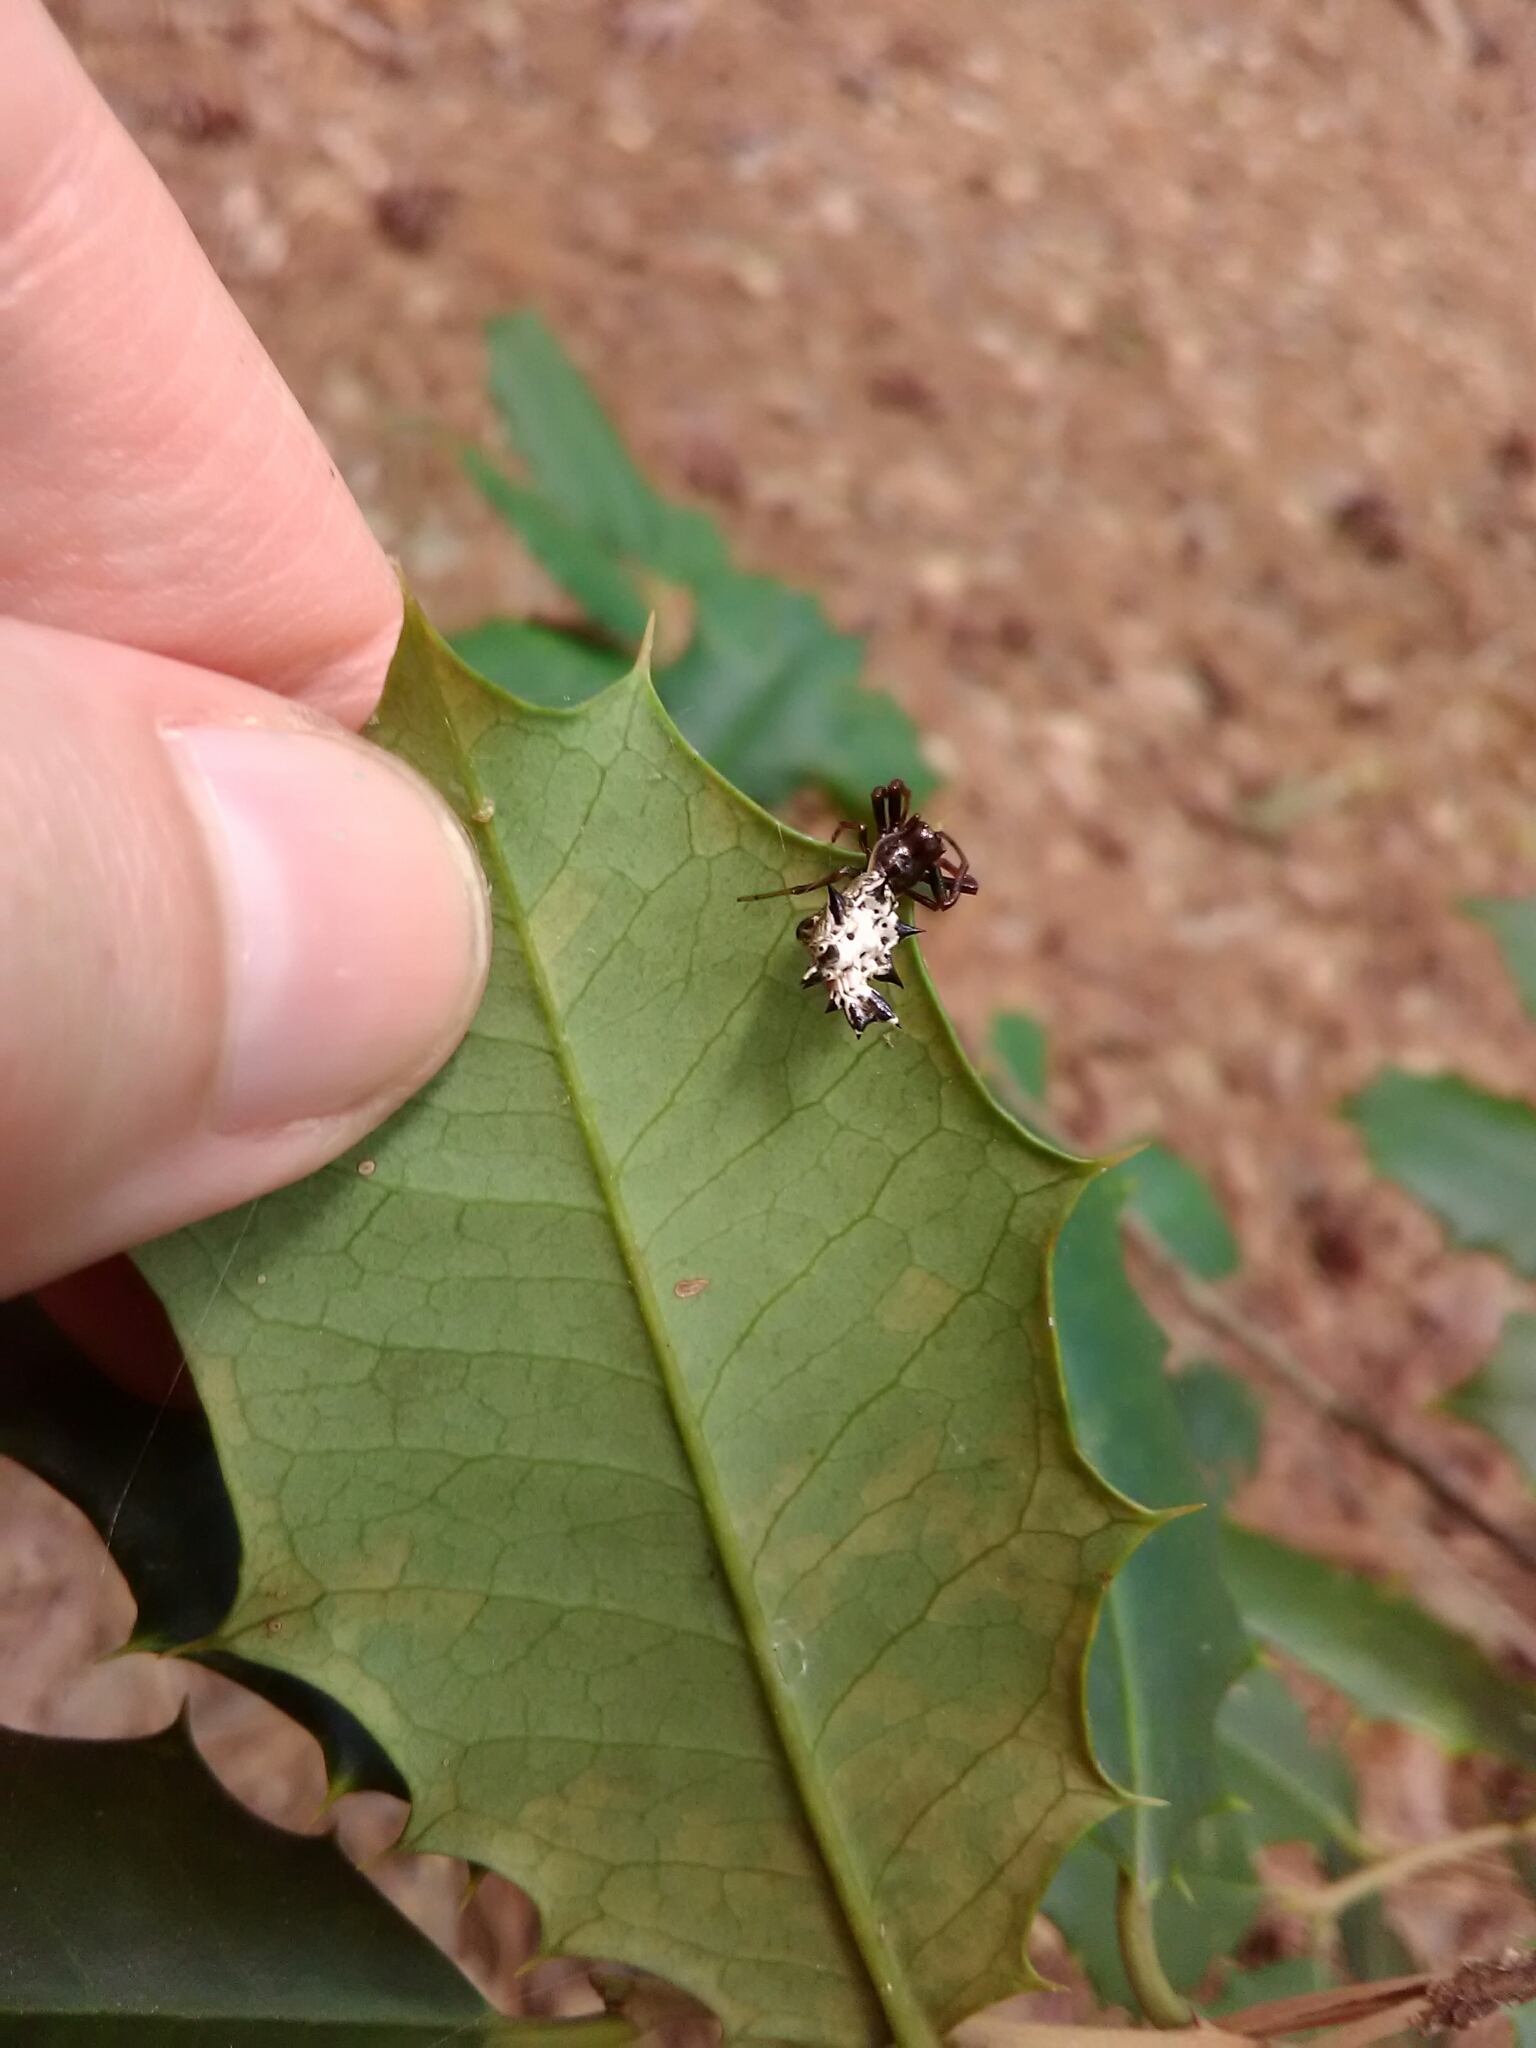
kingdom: Animalia
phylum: Arthropoda
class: Arachnida
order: Araneae
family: Araneidae
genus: Micrathena
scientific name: Micrathena gracilis
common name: Orb weavers
